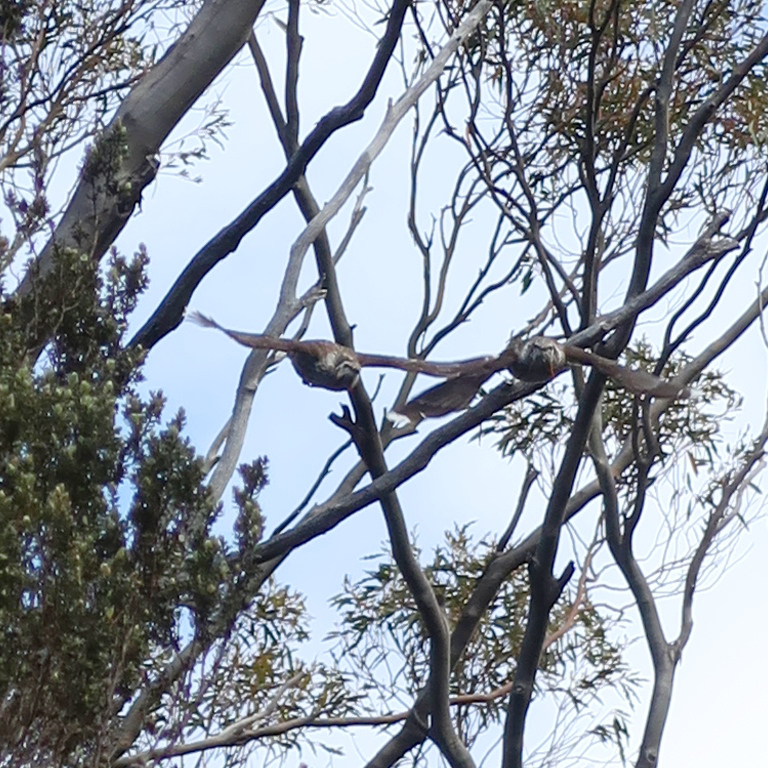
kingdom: Animalia
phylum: Chordata
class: Aves
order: Passeriformes
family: Meliphagidae
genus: Anthochaera
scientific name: Anthochaera paradoxa
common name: Yellow wattlebird
